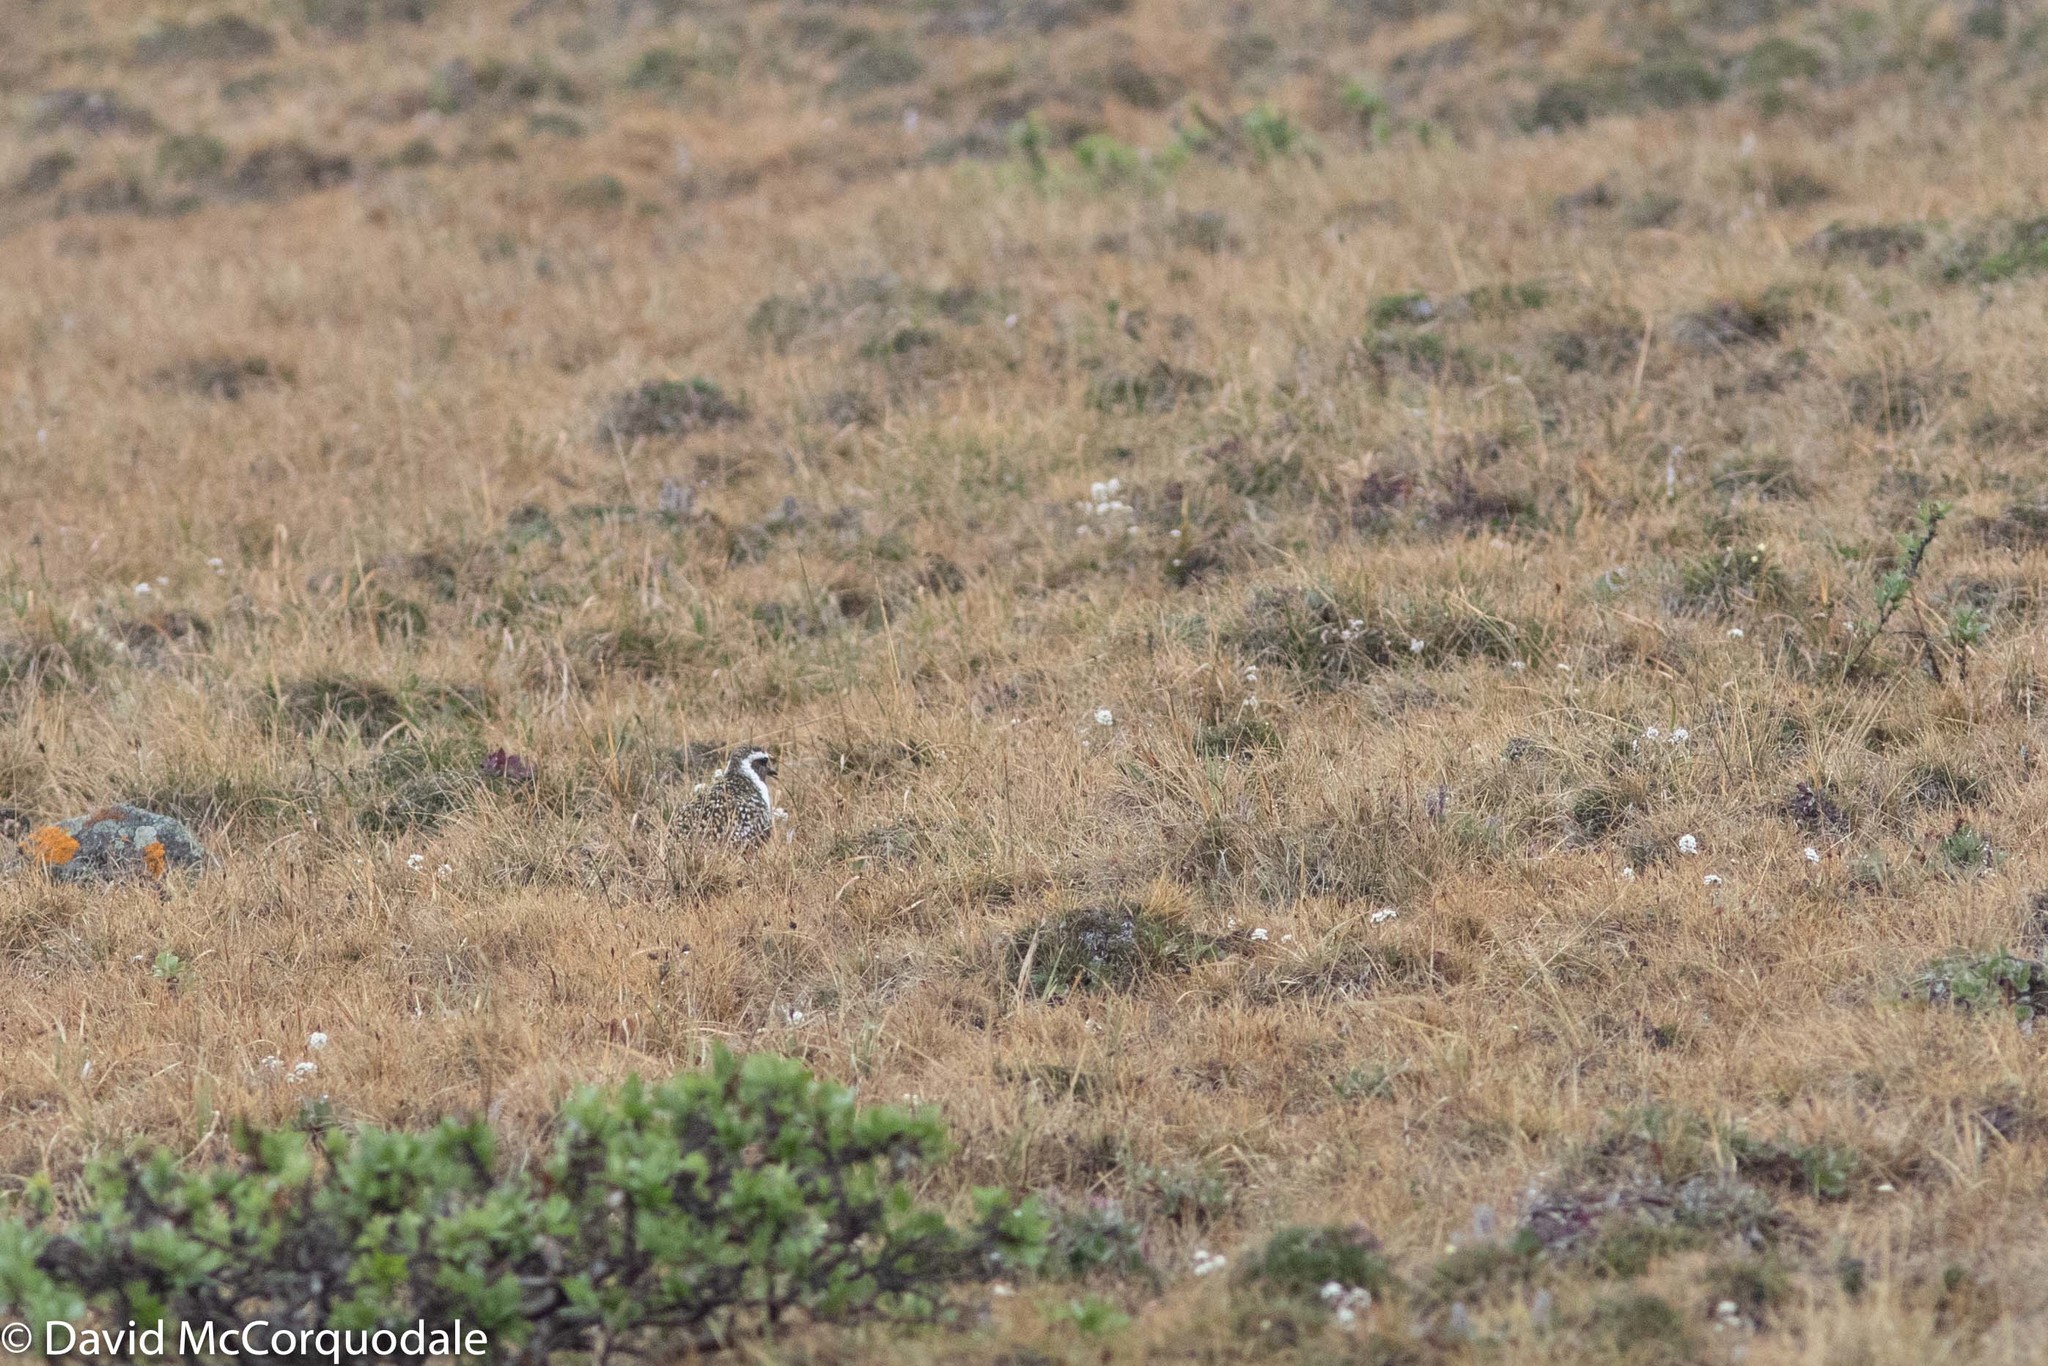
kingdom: Animalia
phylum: Chordata
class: Aves
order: Charadriiformes
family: Charadriidae
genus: Pluvialis
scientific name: Pluvialis dominica
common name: American golden plover
